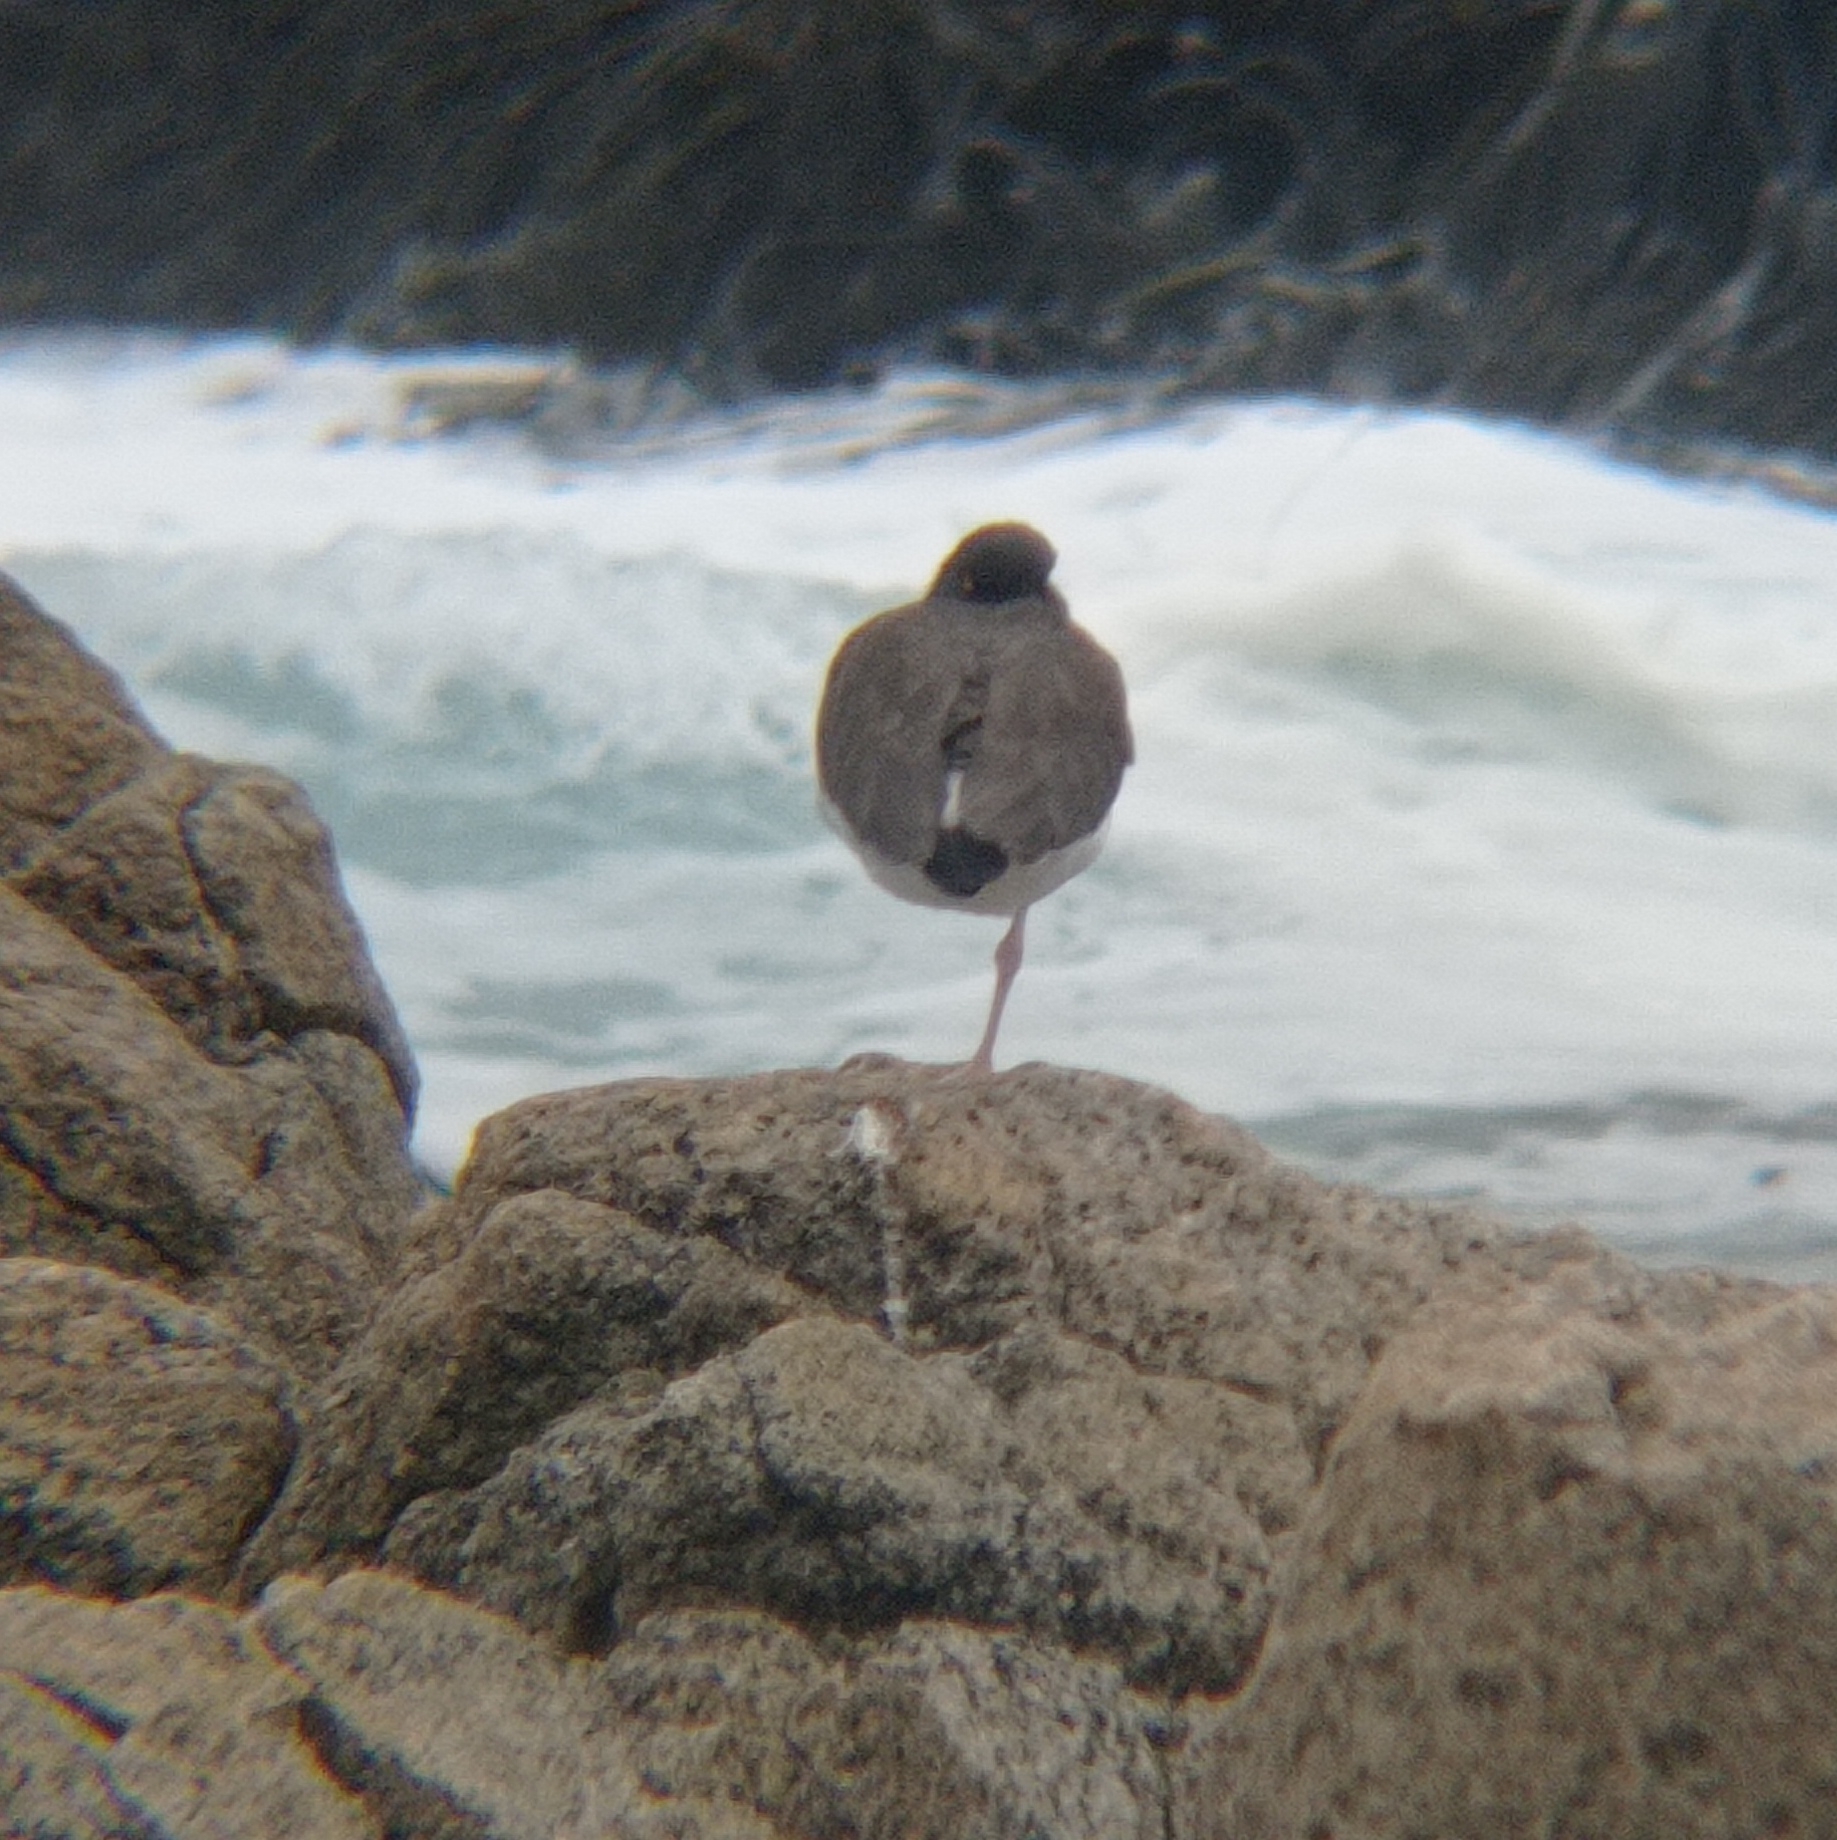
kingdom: Animalia
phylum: Chordata
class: Aves
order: Charadriiformes
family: Haematopodidae
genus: Haematopus
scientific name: Haematopus palliatus
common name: American oystercatcher
